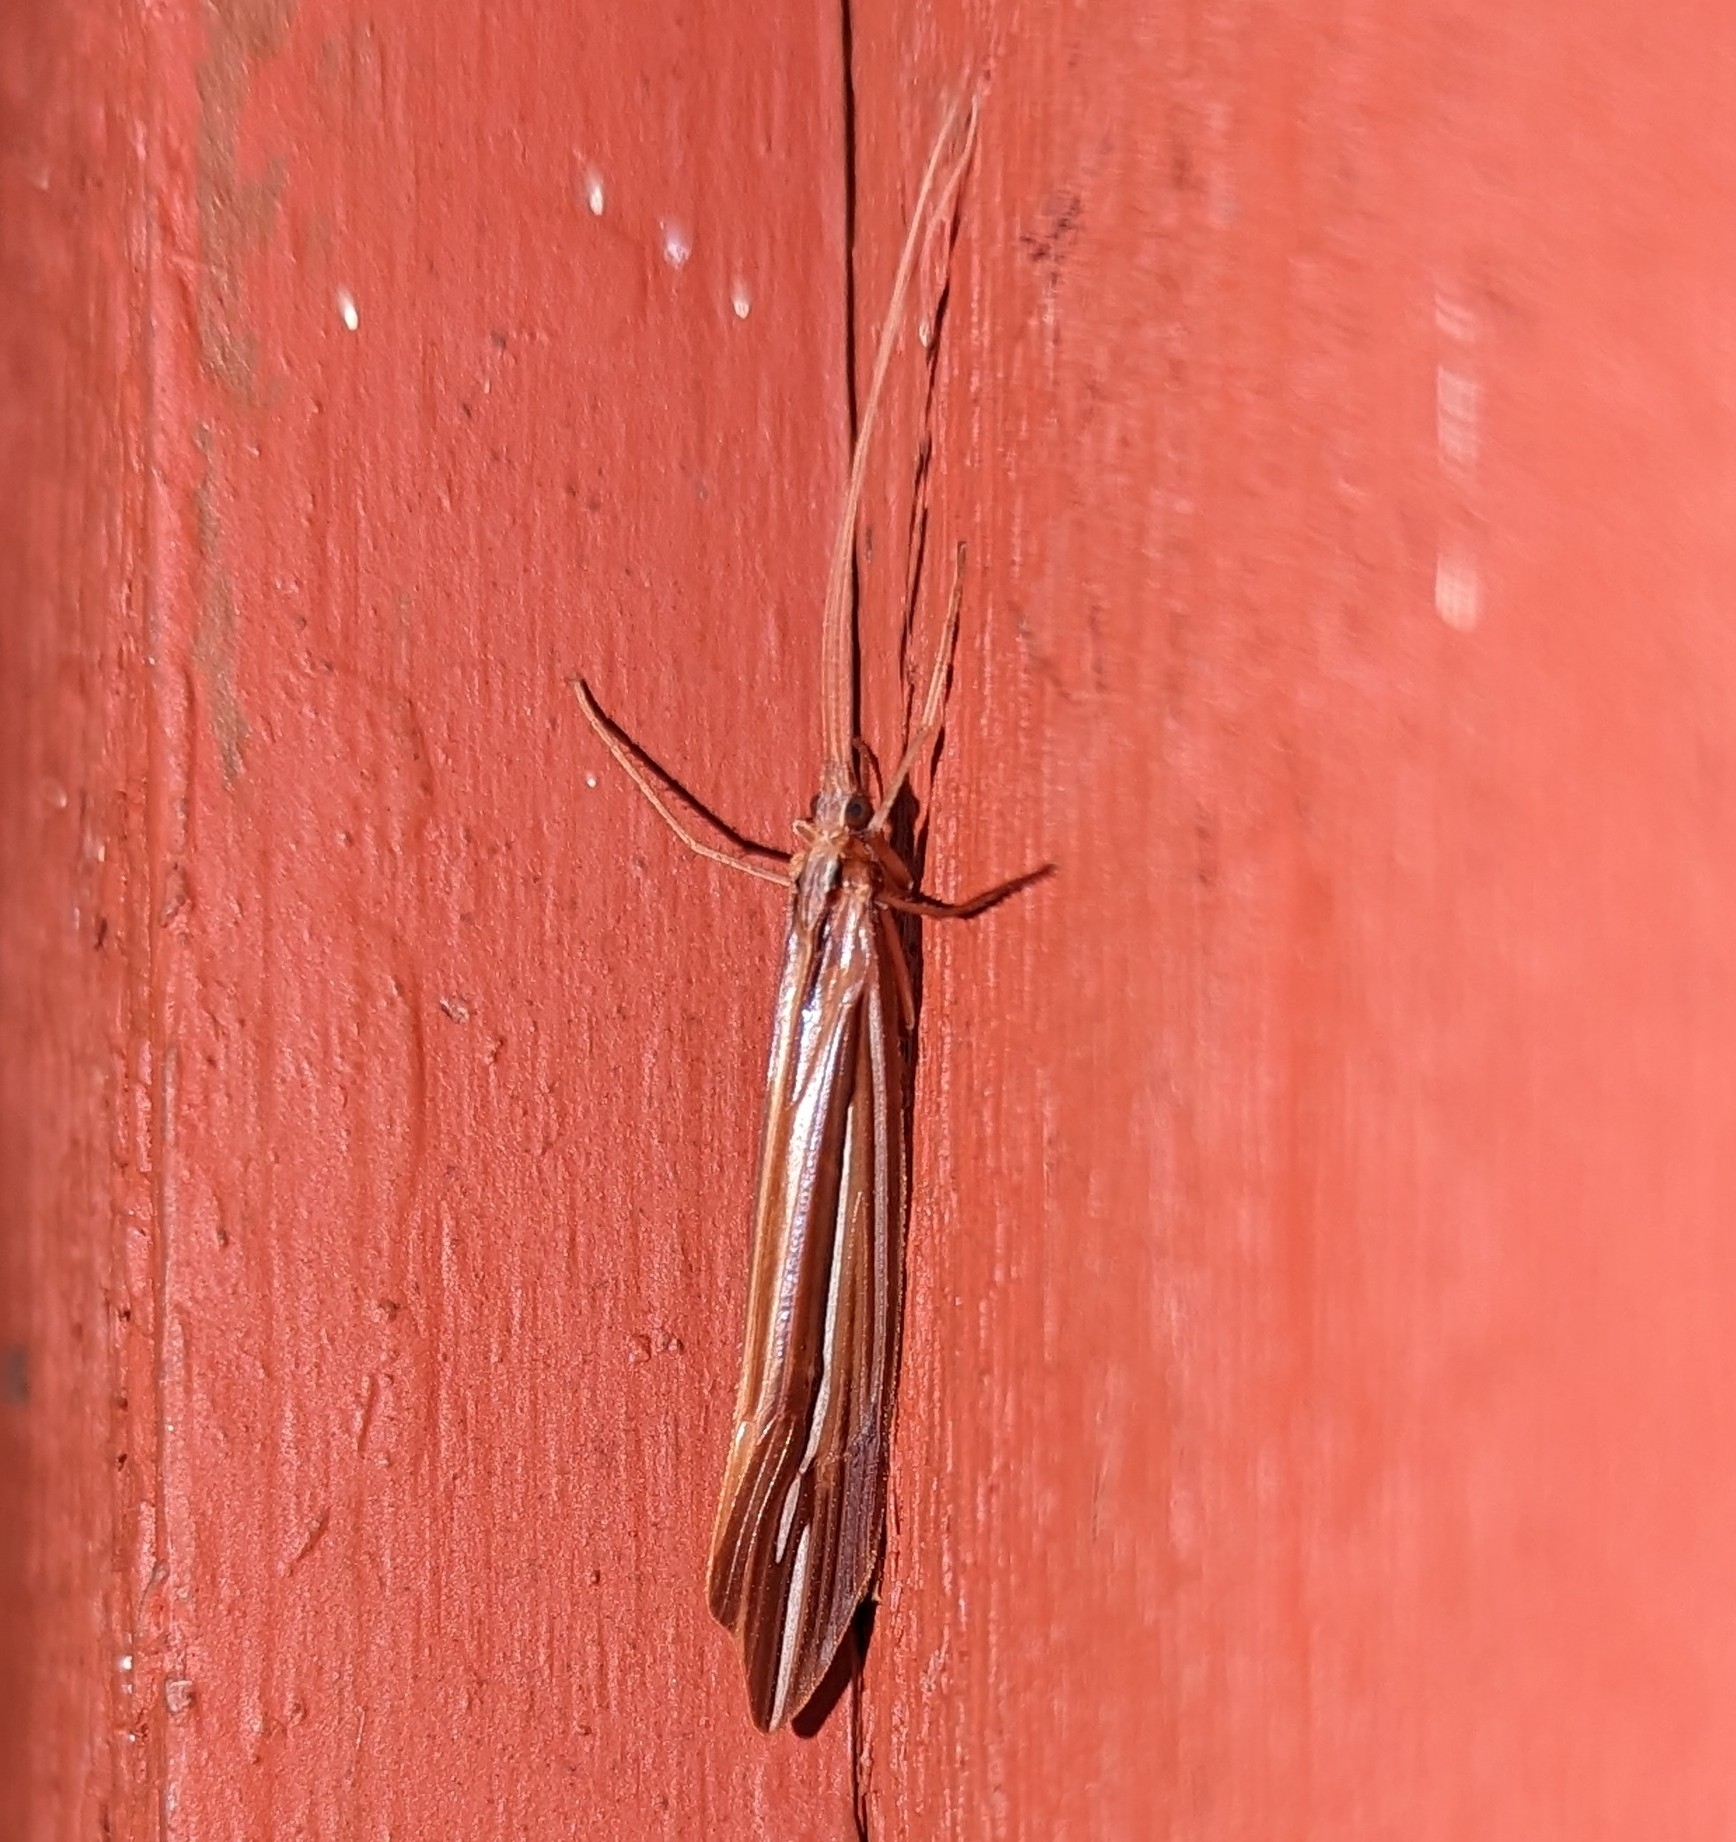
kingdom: Animalia
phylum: Arthropoda
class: Insecta
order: Trichoptera
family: Limnephilidae
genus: Psychoglypha
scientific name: Psychoglypha bella
